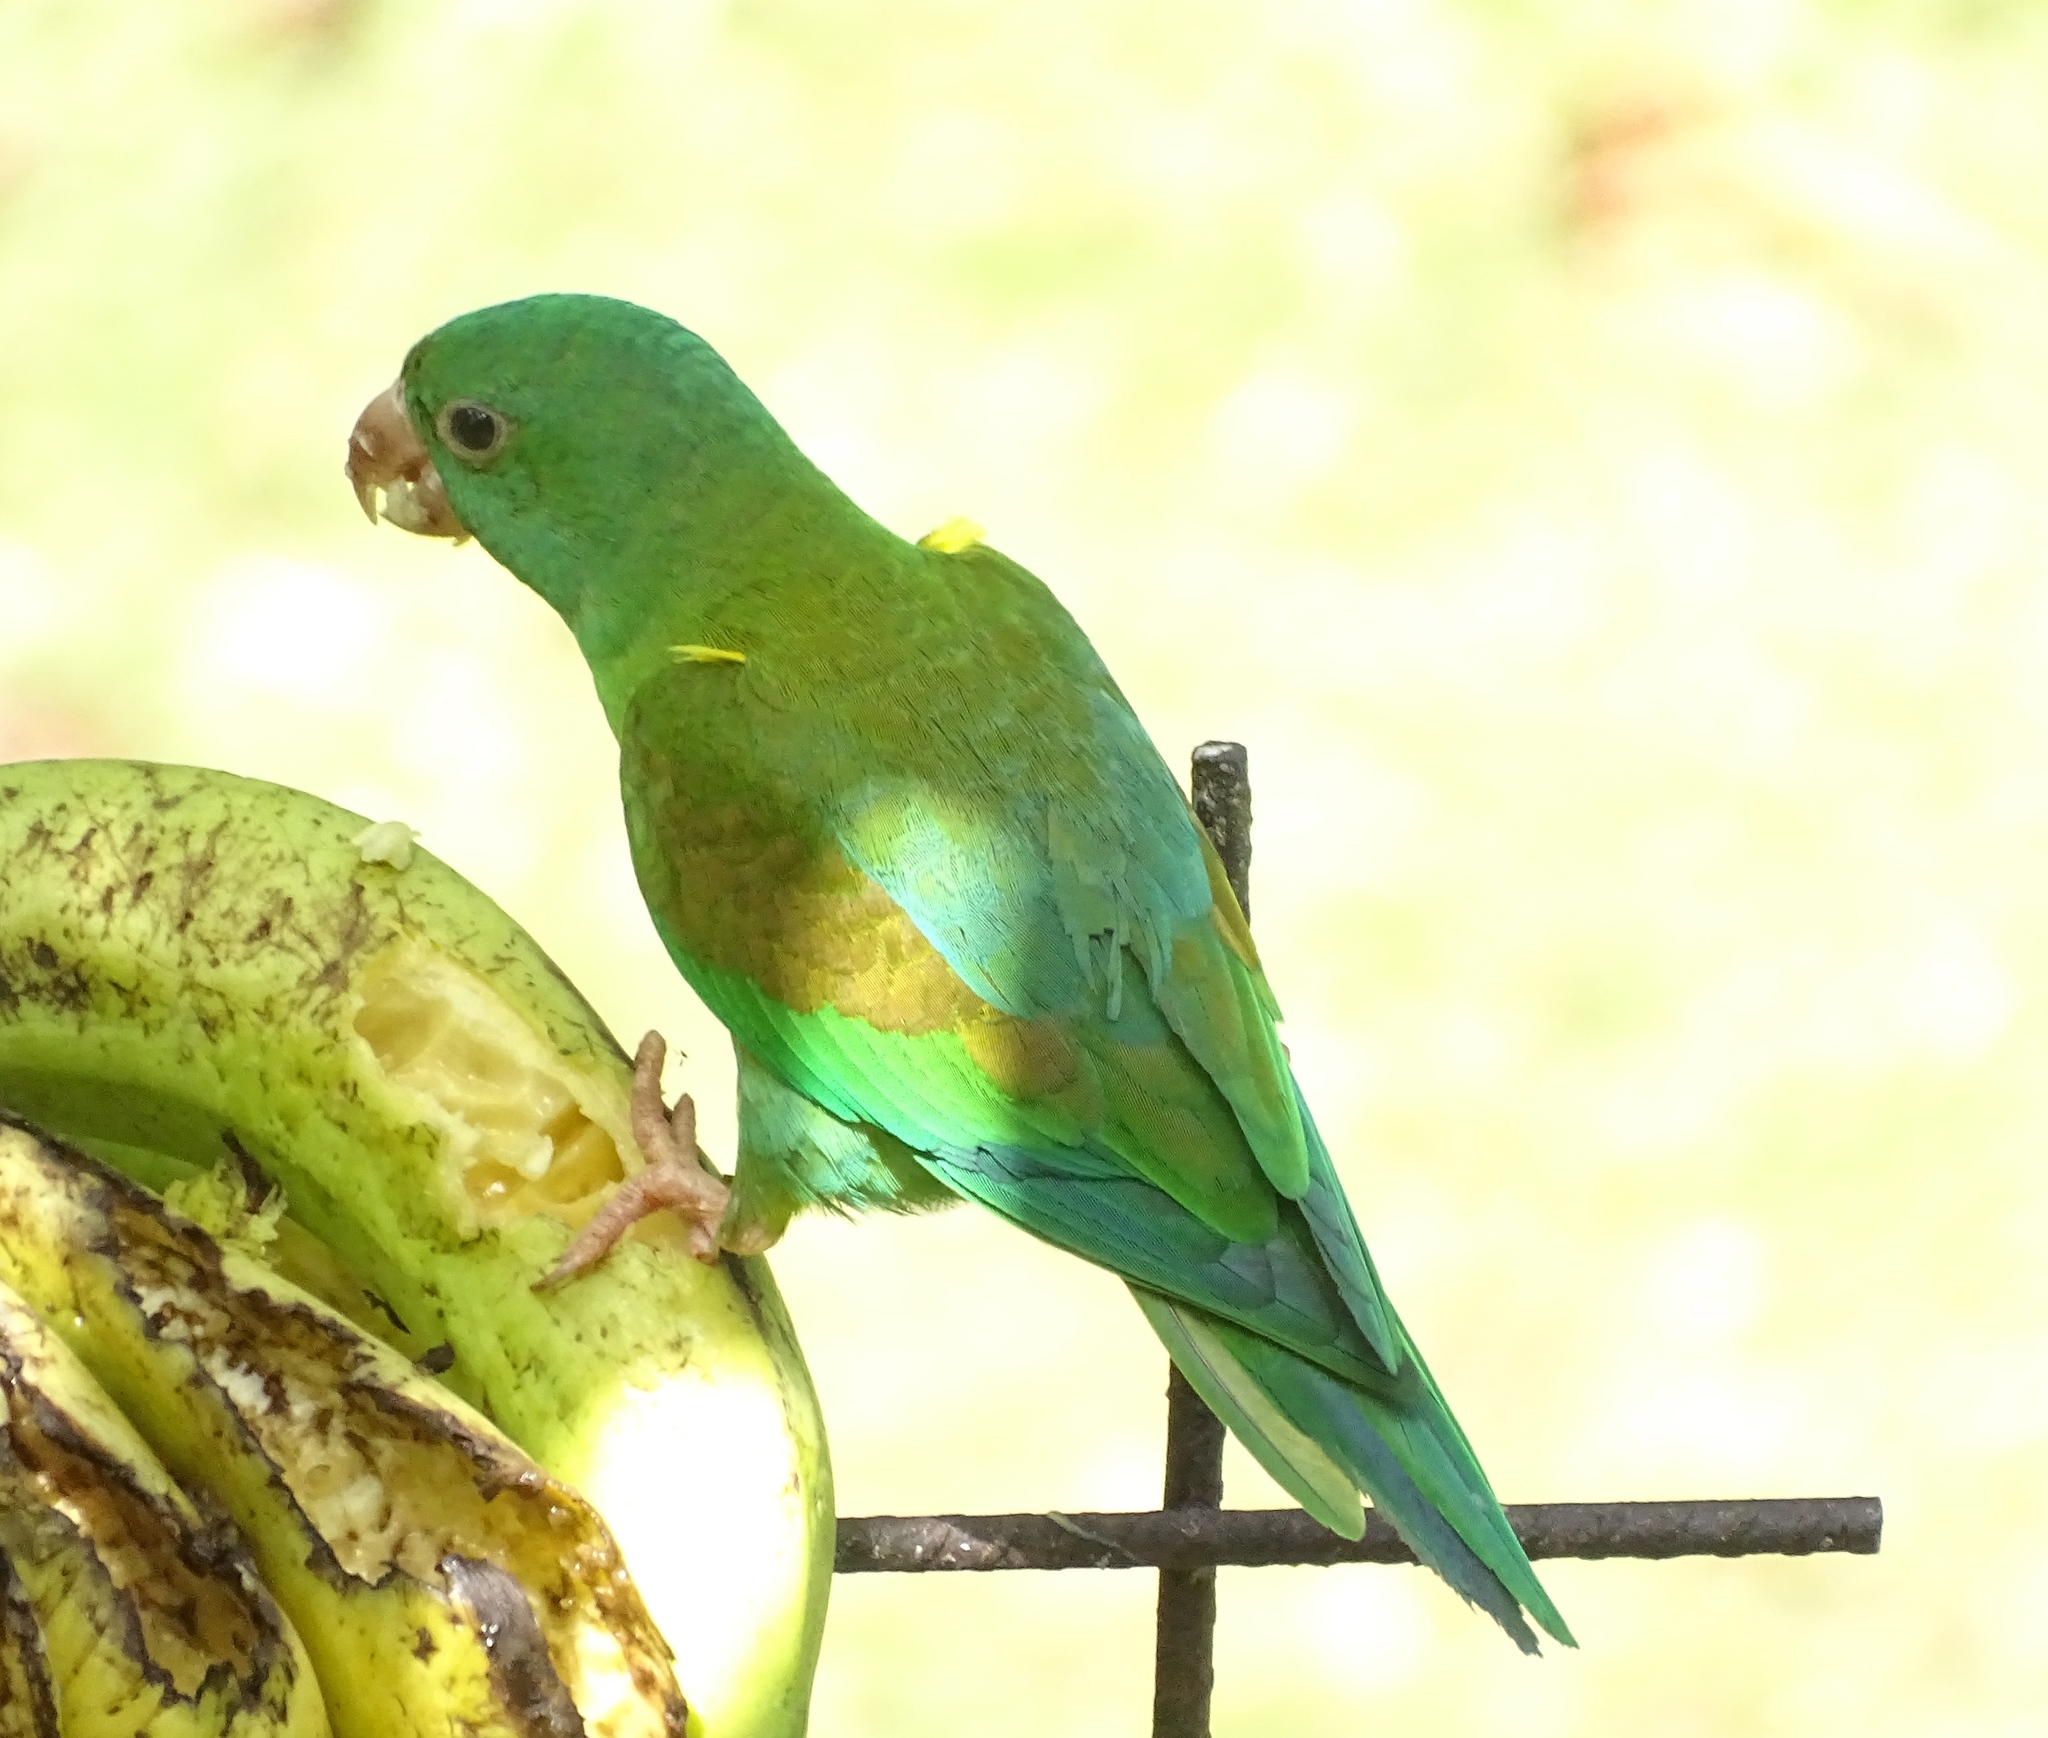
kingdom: Animalia
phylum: Chordata
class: Aves
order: Psittaciformes
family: Psittacidae
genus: Brotogeris
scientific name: Brotogeris jugularis
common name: Orange-chinned parakeet
